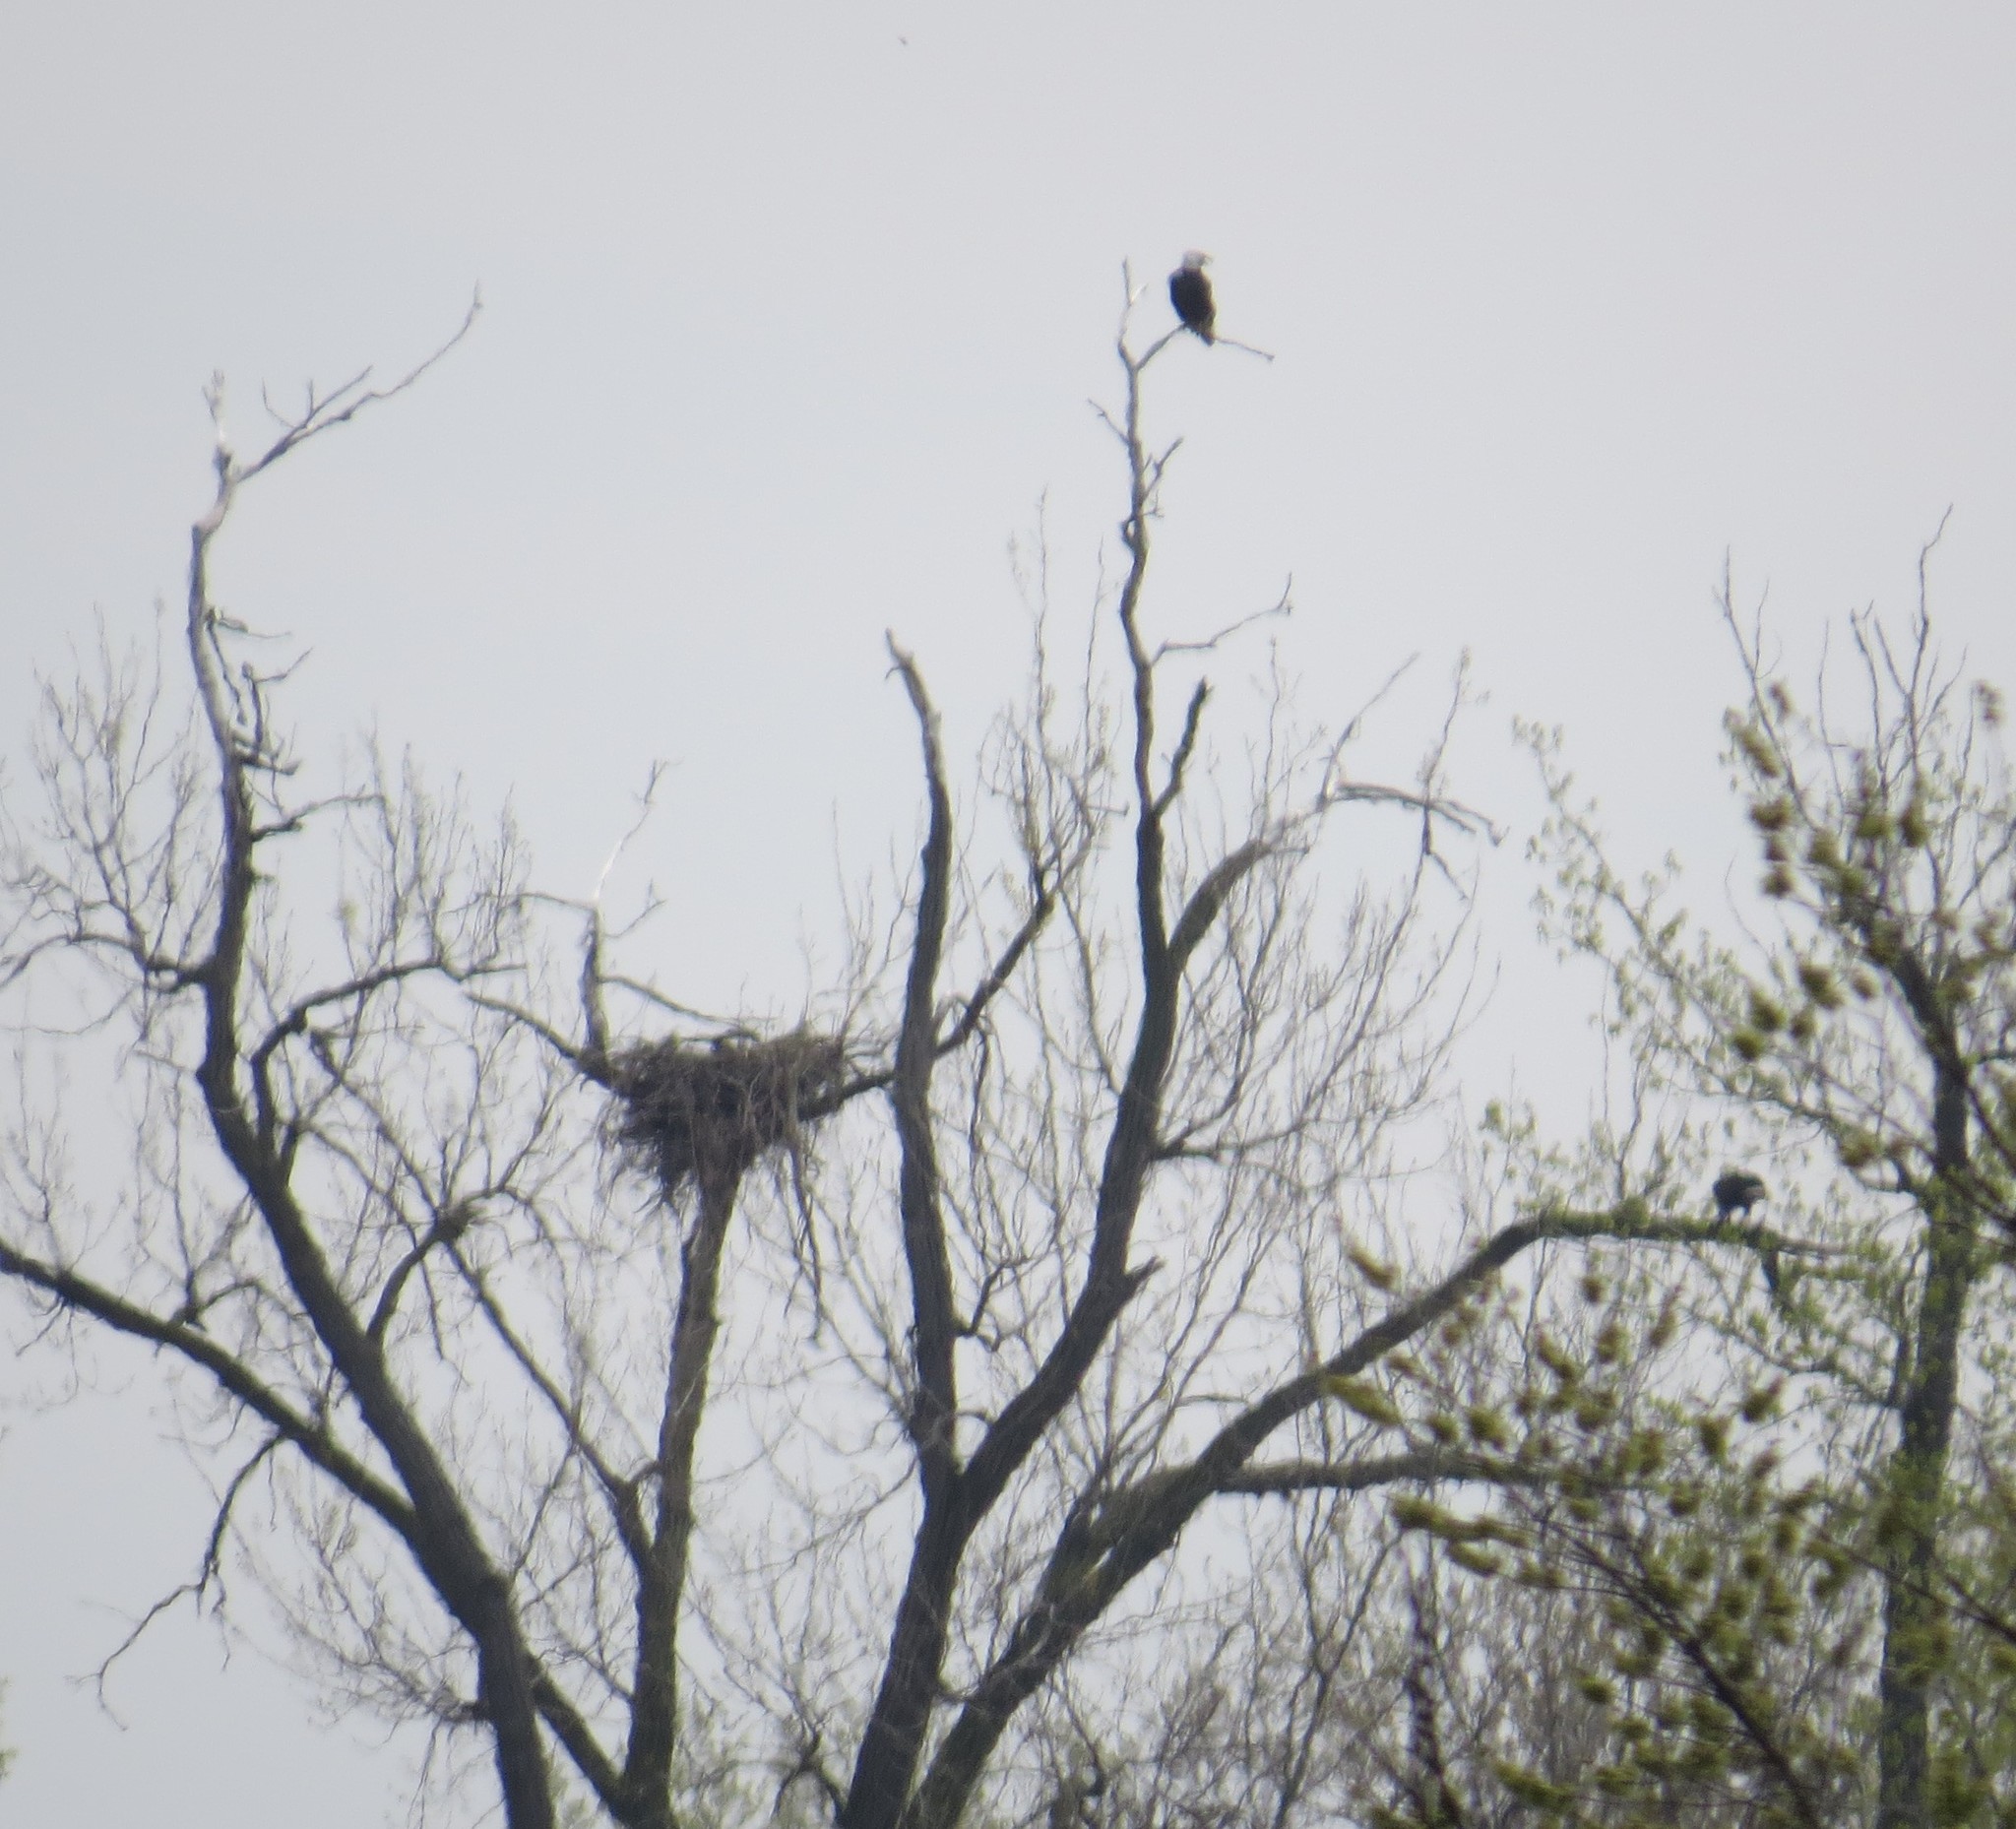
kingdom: Animalia
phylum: Chordata
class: Aves
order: Accipitriformes
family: Accipitridae
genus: Haliaeetus
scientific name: Haliaeetus leucocephalus
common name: Bald eagle
